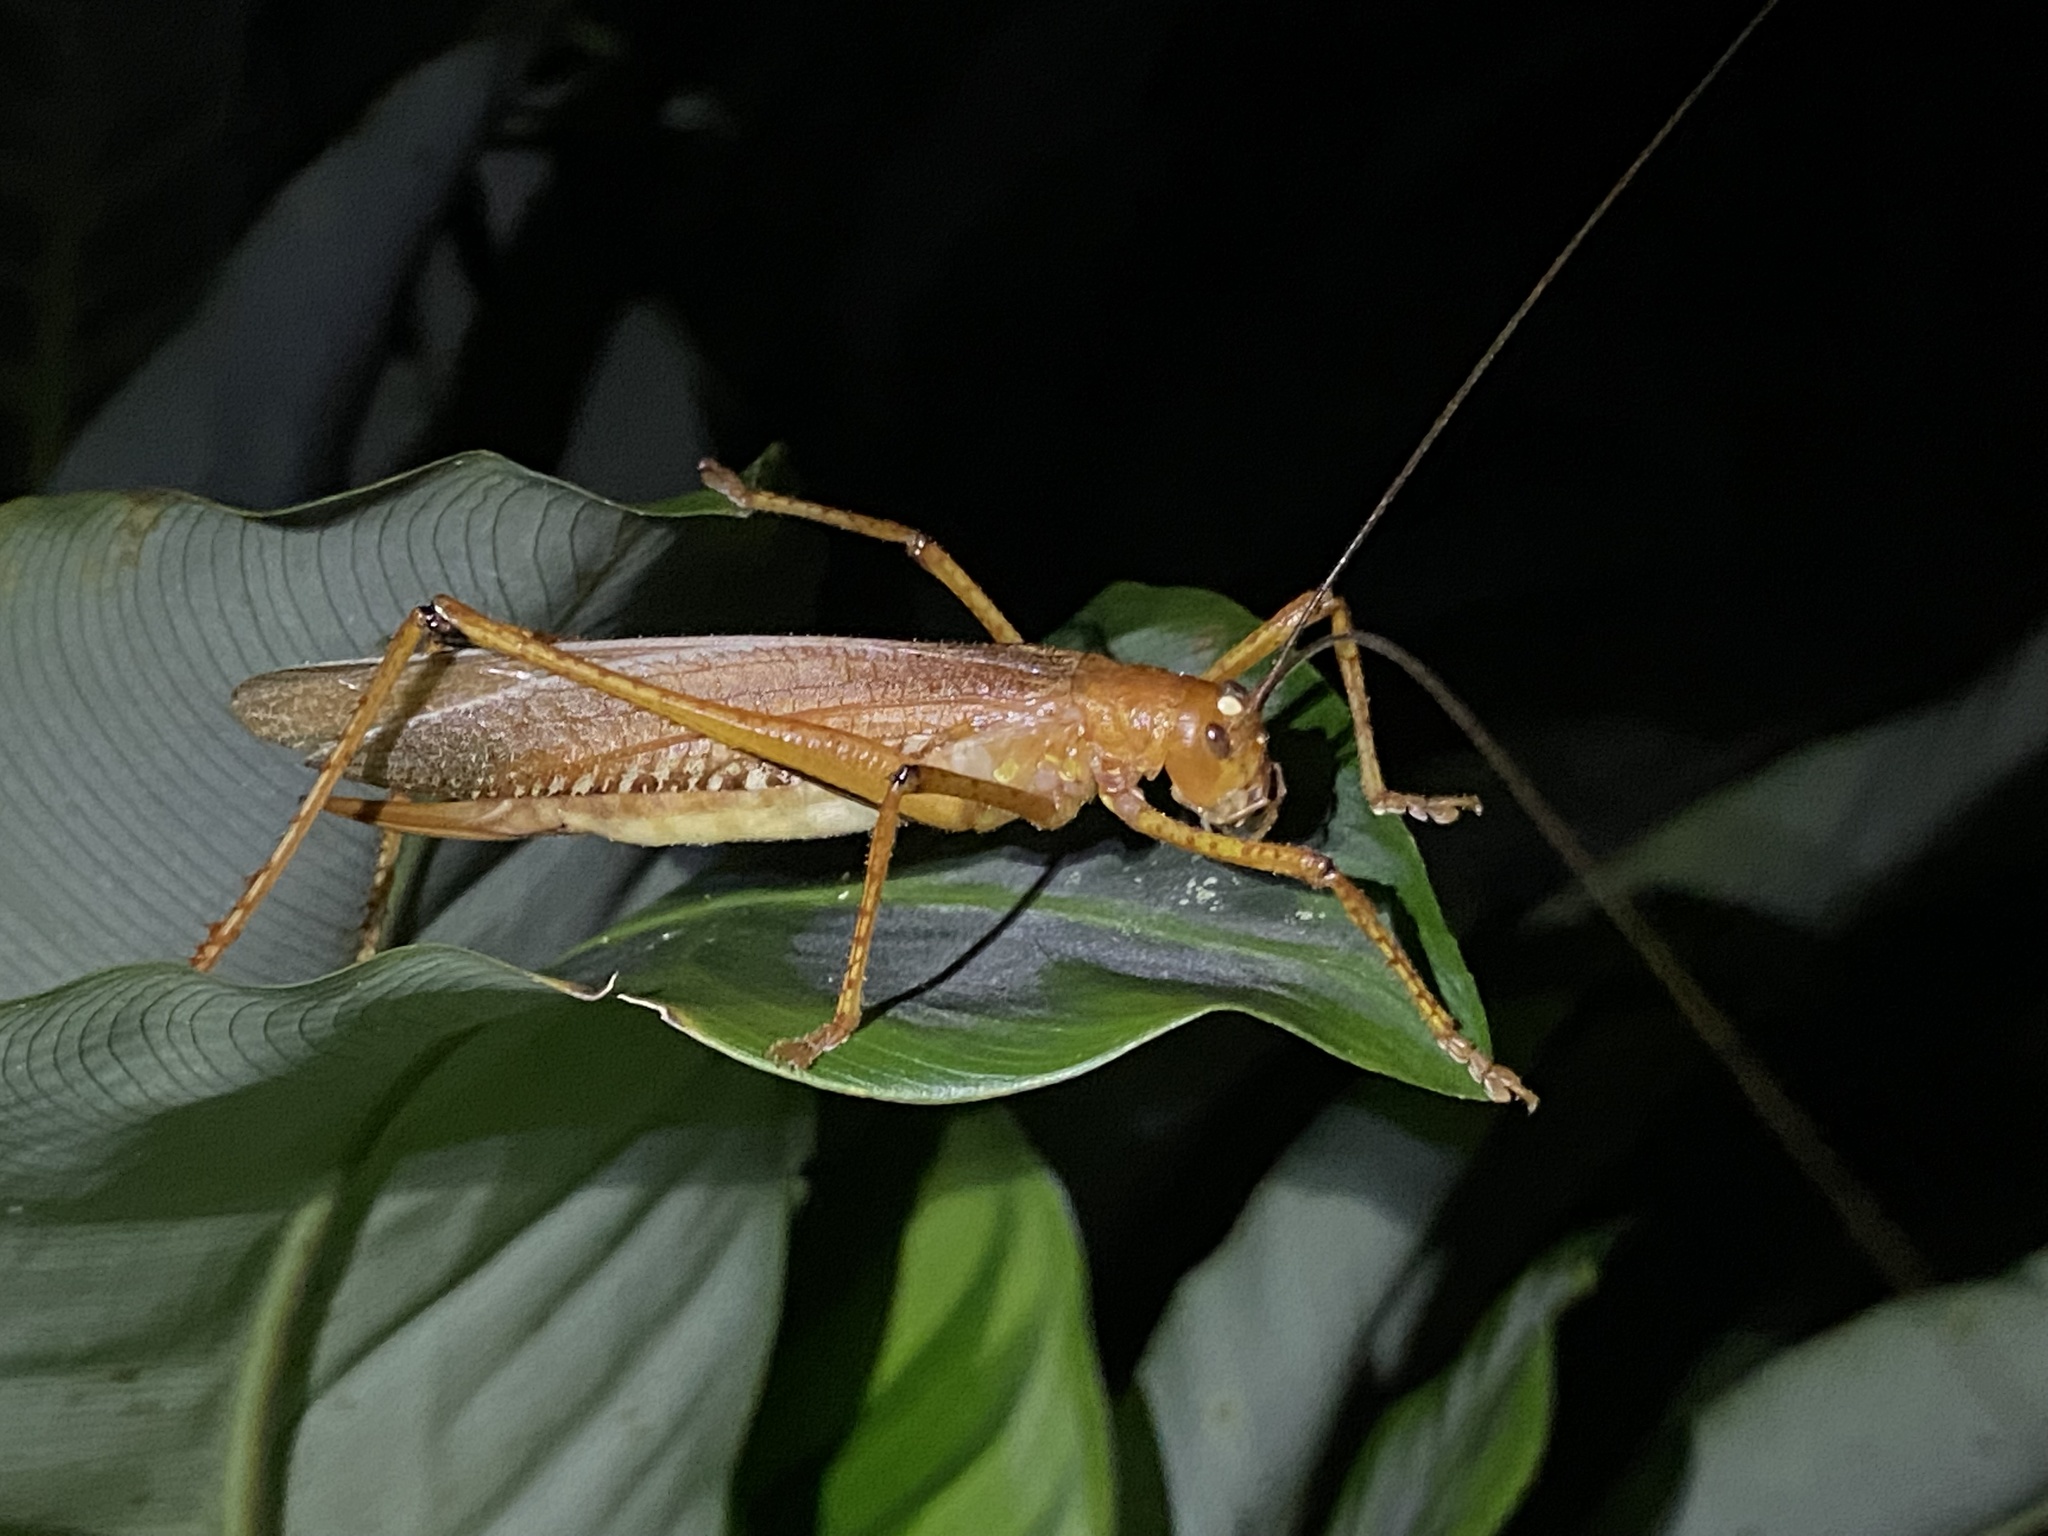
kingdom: Animalia
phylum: Arthropoda
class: Insecta
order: Orthoptera
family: Tettigoniidae
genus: Ischnomela
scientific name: Ischnomela gracilis
